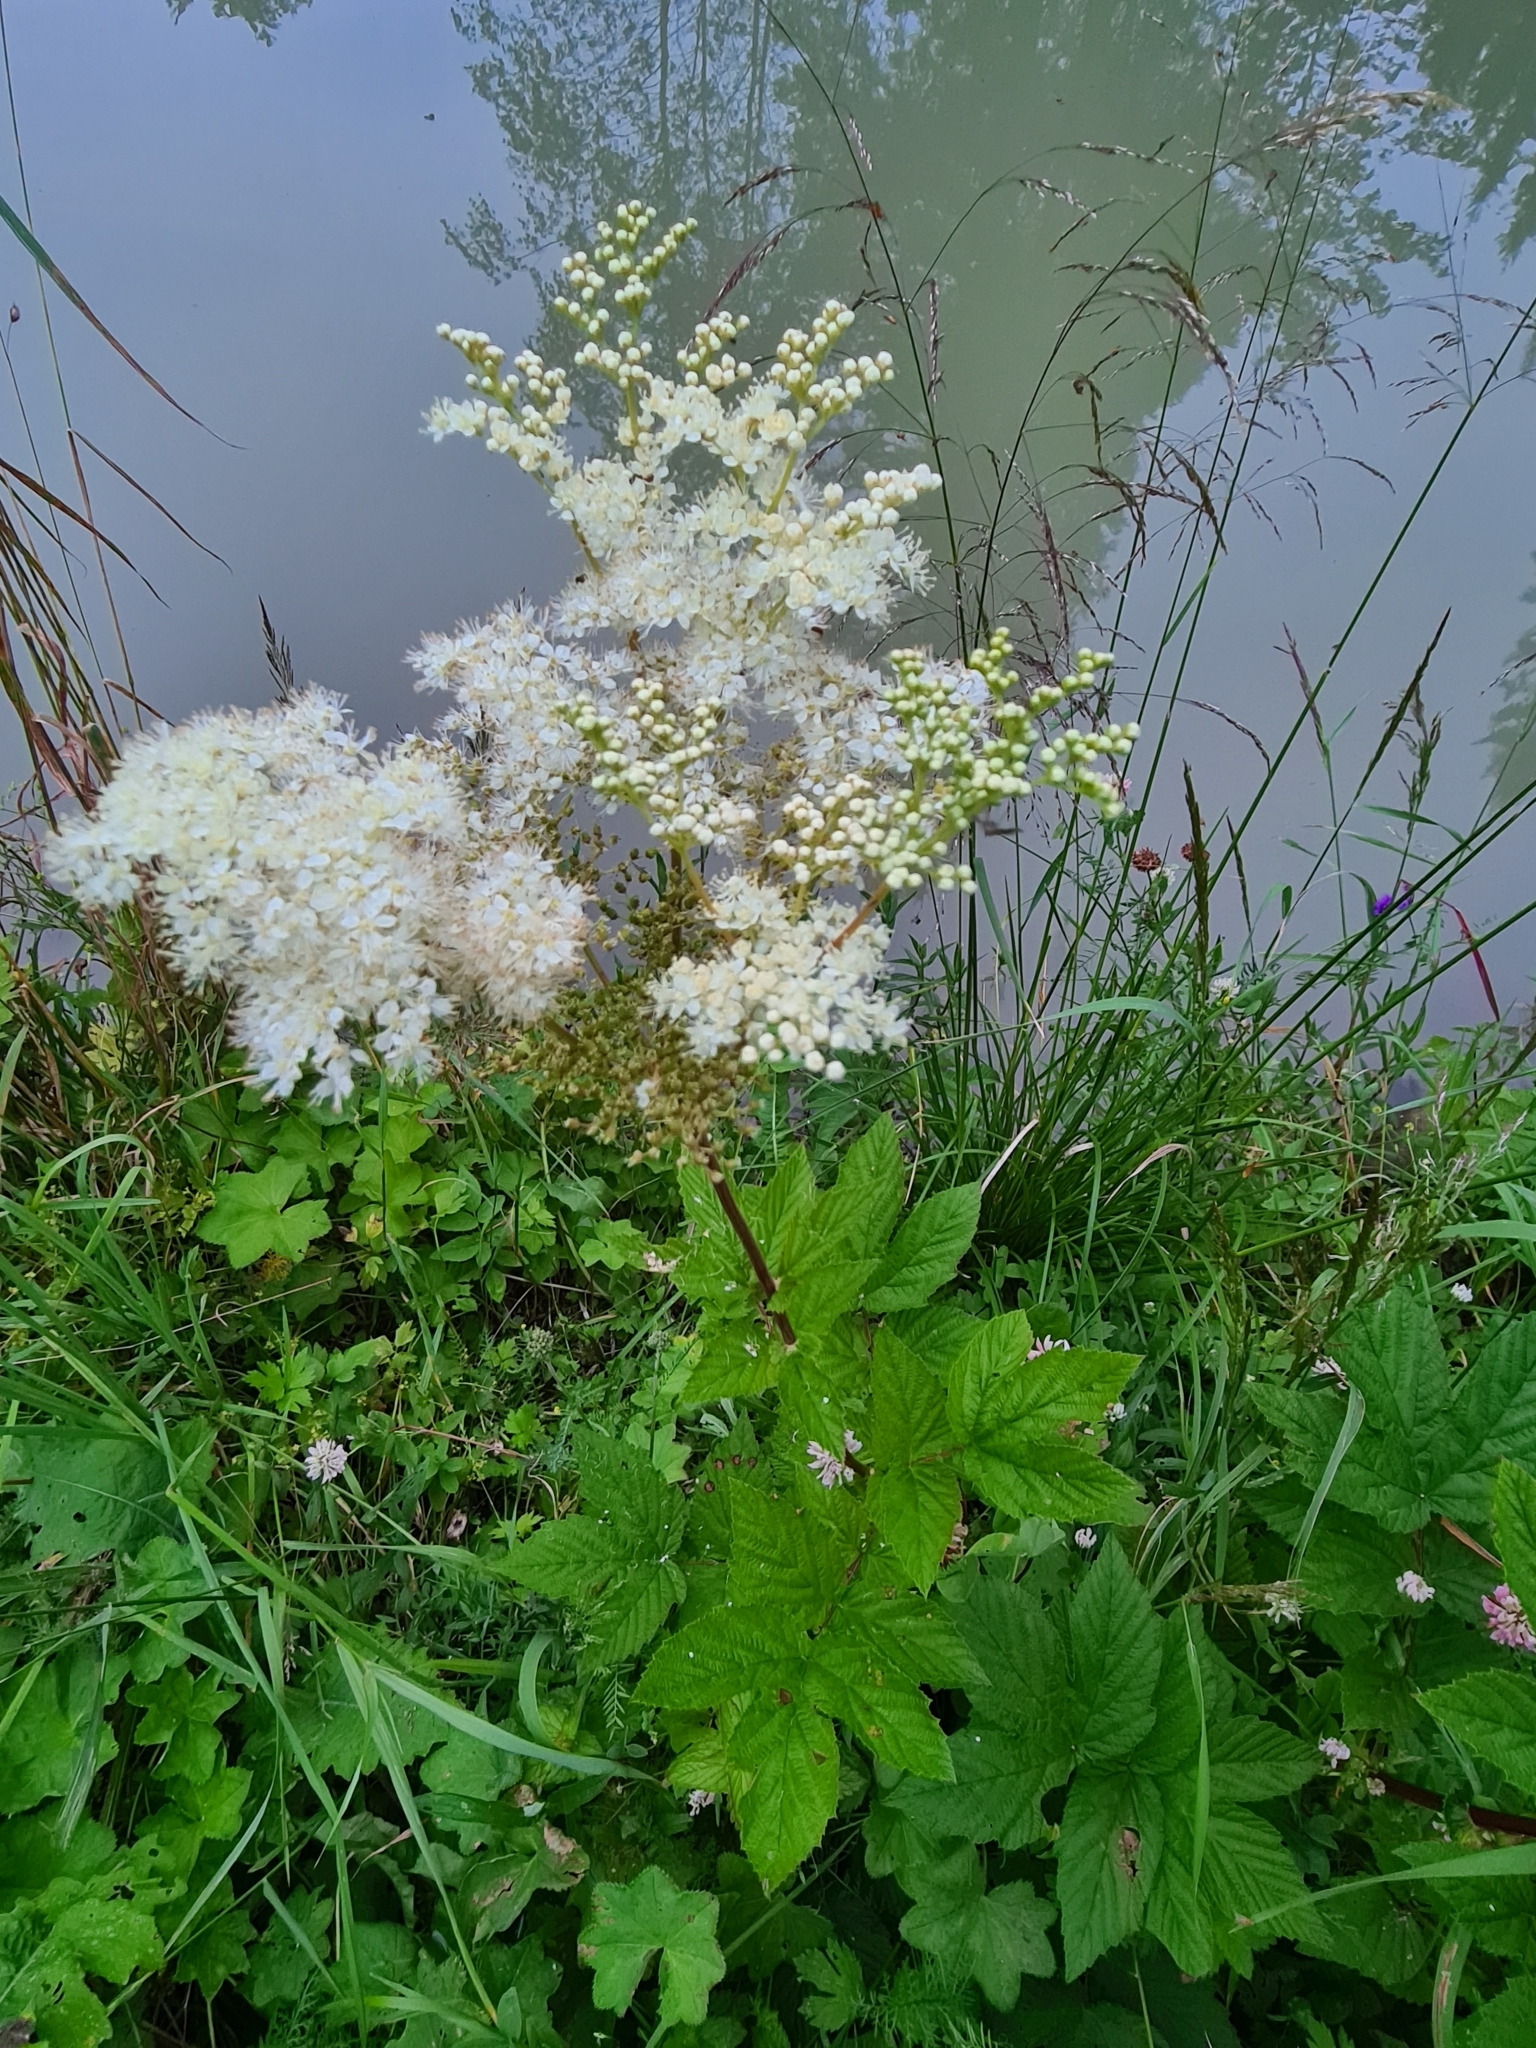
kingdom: Plantae
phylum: Tracheophyta
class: Magnoliopsida
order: Rosales
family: Rosaceae
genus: Filipendula
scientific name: Filipendula ulmaria
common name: Meadowsweet
